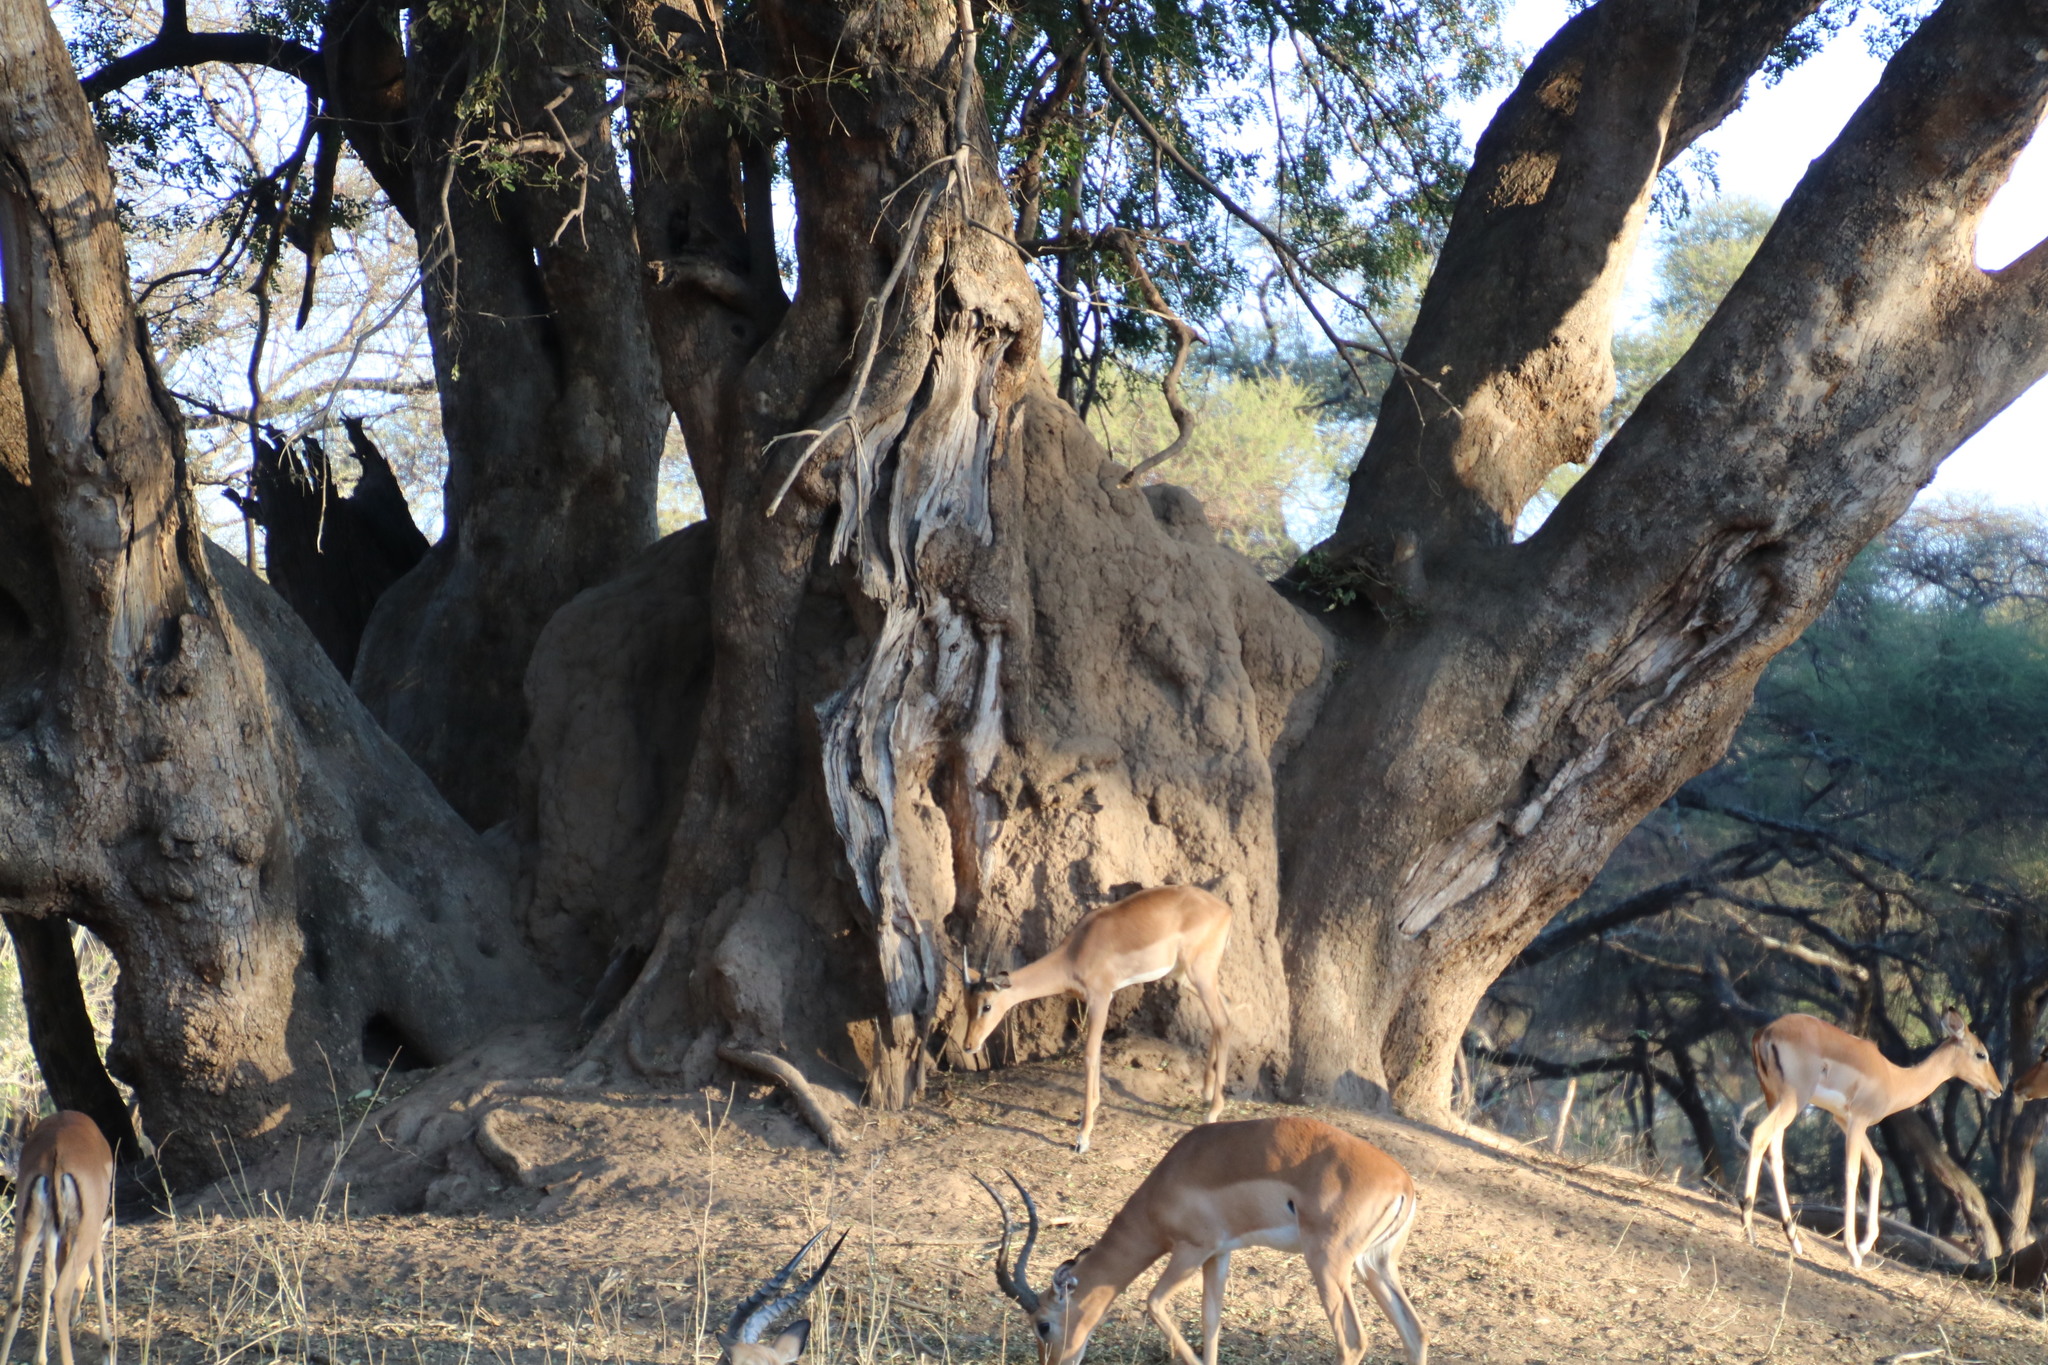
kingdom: Plantae
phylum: Tracheophyta
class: Magnoliopsida
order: Fabales
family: Fabaceae
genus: Xanthocercis
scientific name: Xanthocercis zambesiaca
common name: Nyala-tree
